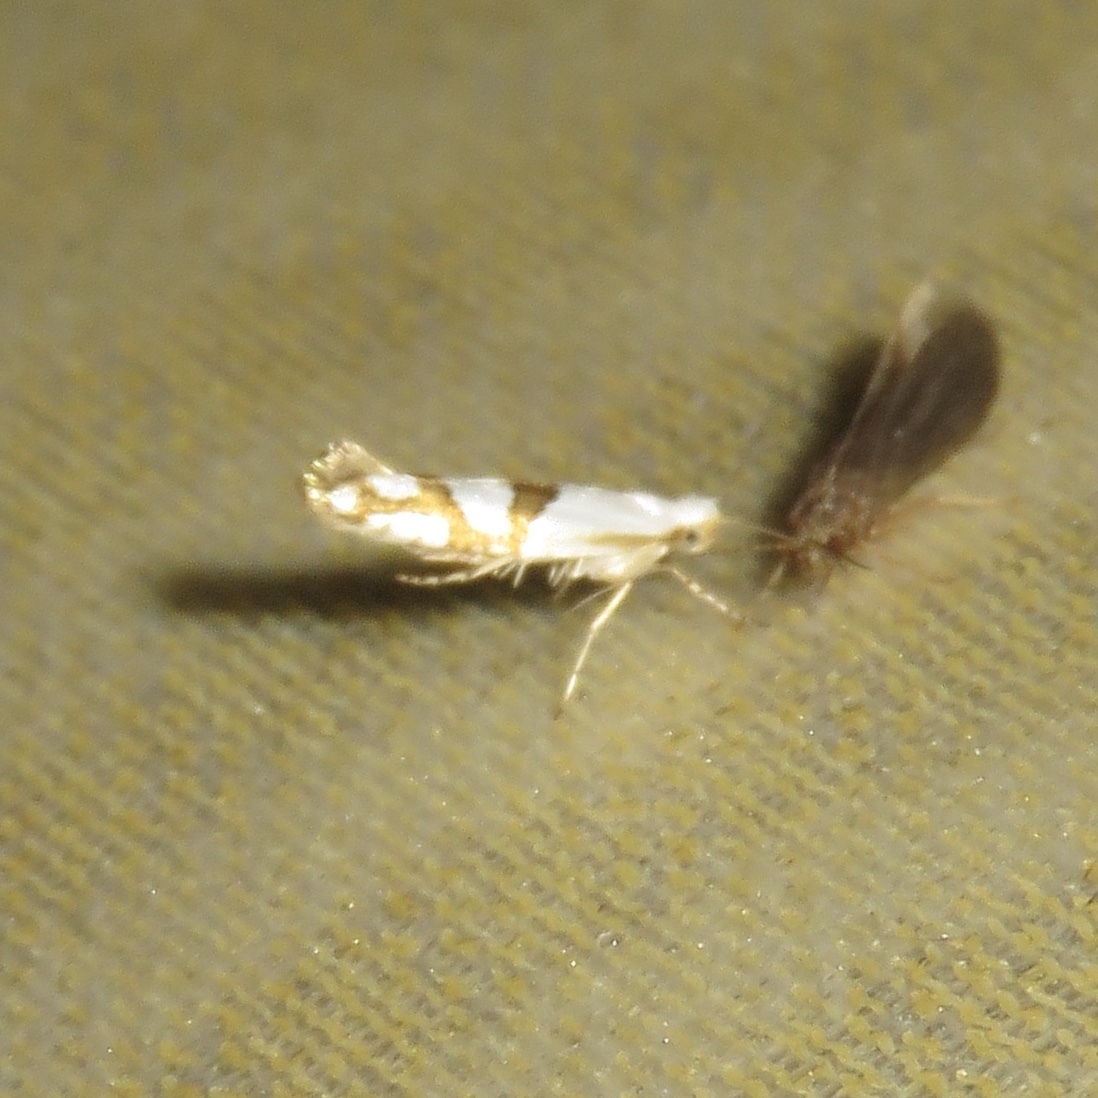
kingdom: Animalia
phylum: Arthropoda
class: Insecta
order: Lepidoptera
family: Argyresthiidae
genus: Argyresthia
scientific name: Argyresthia oreasella
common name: Cherry shoot borer moth
